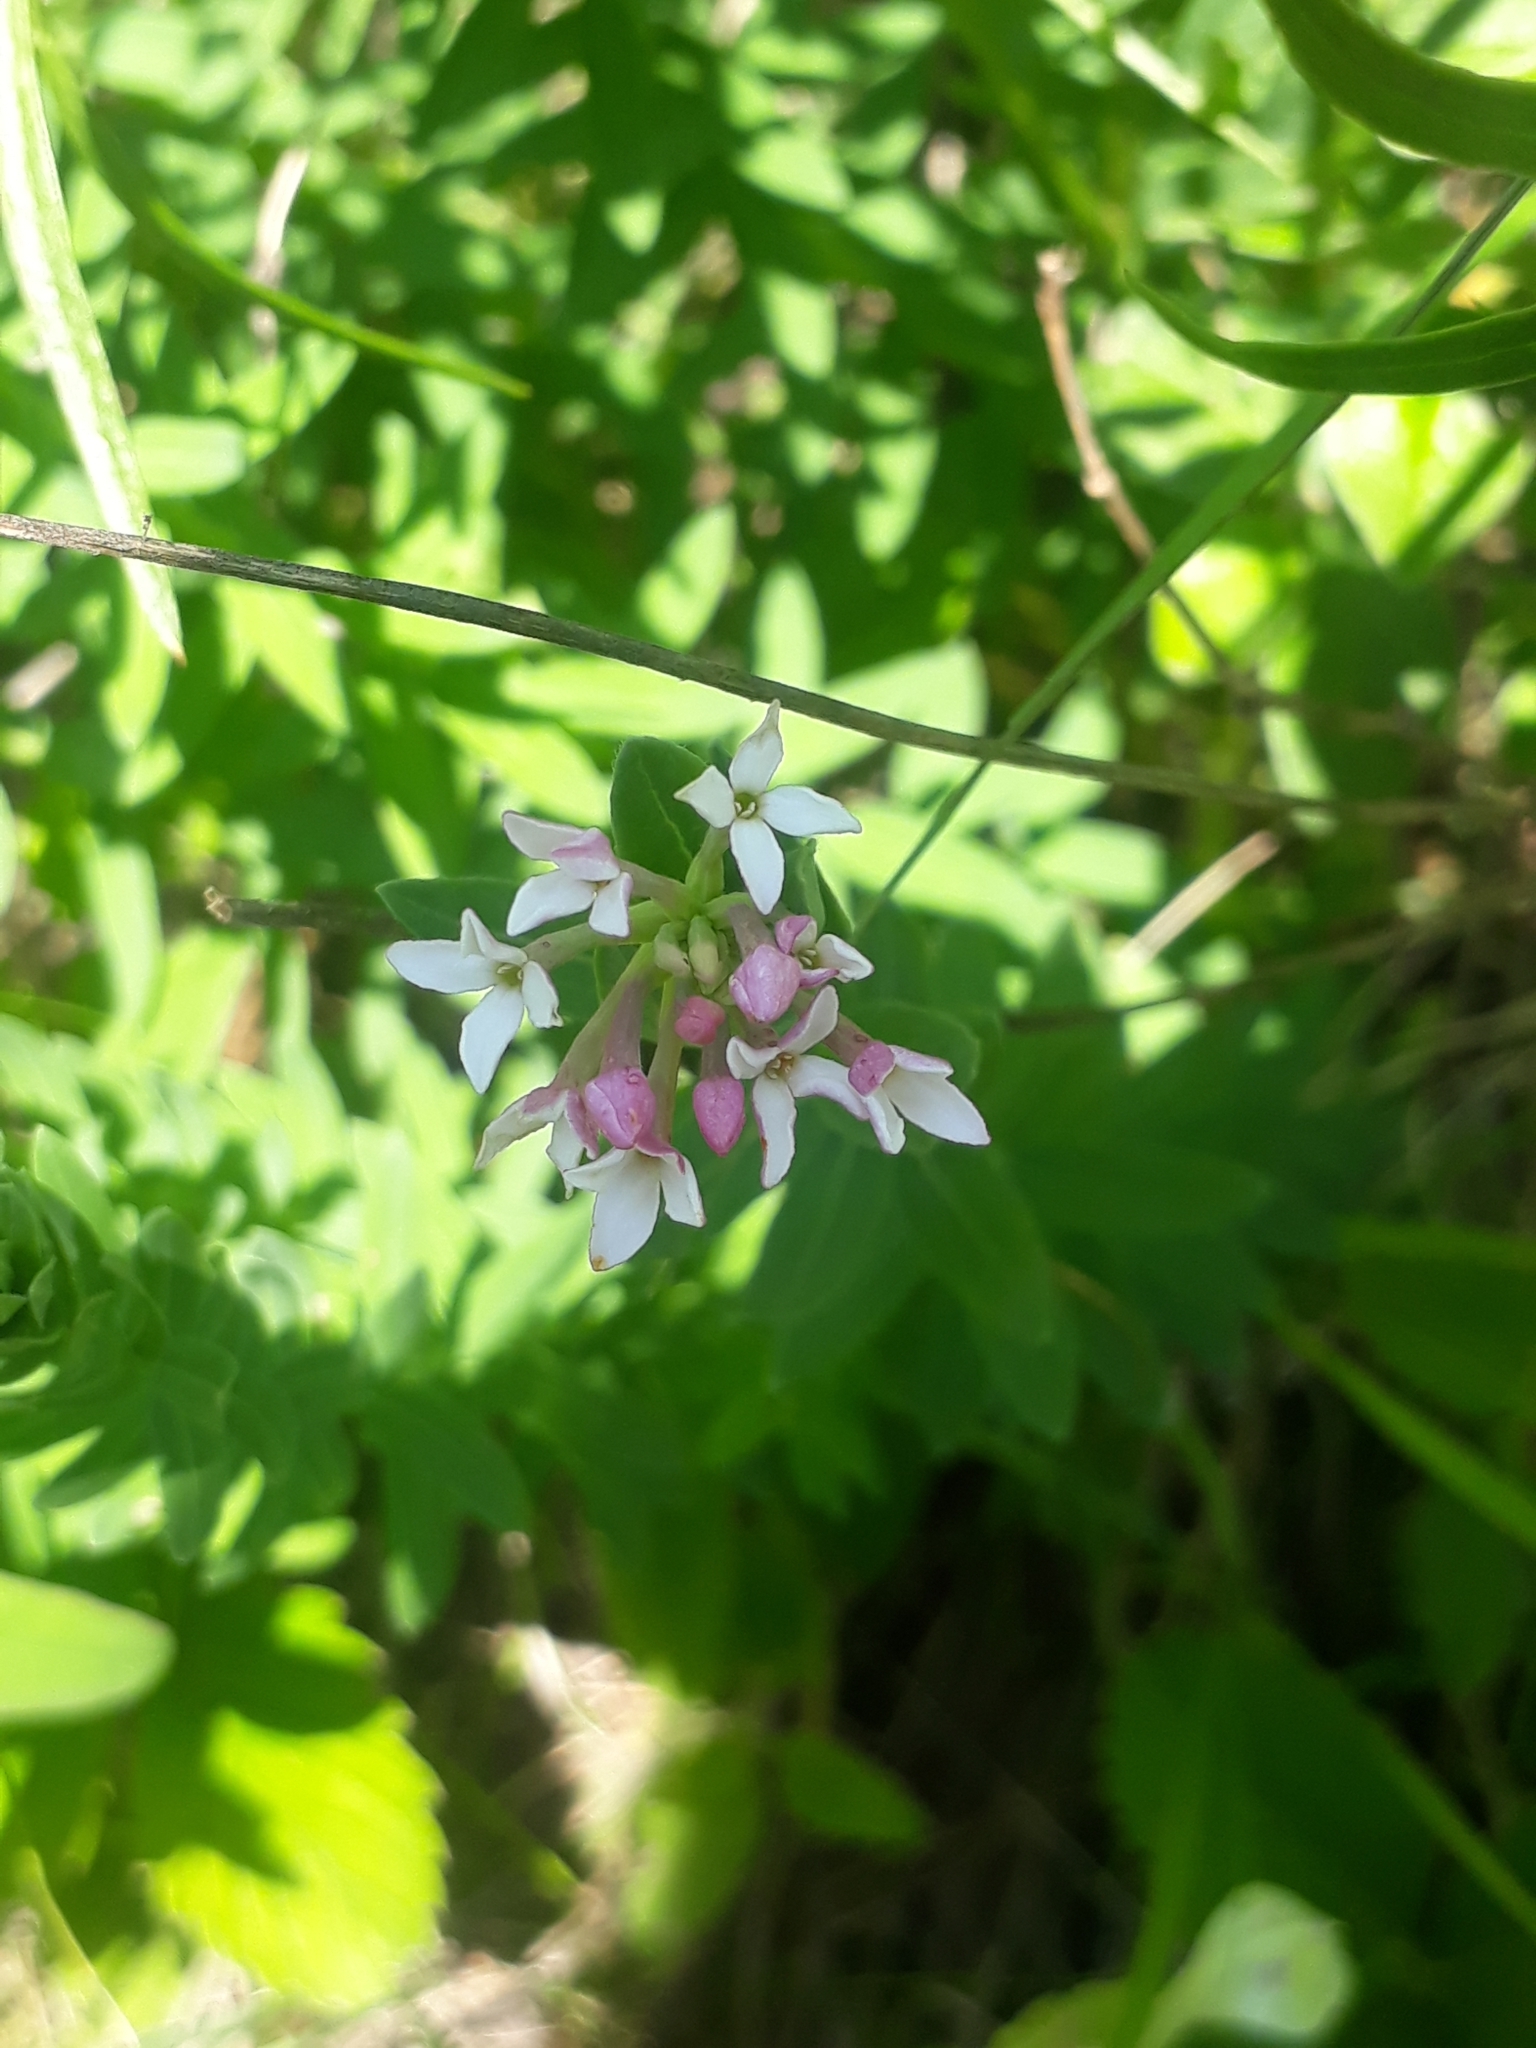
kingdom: Plantae
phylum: Tracheophyta
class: Magnoliopsida
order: Malvales
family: Thymelaeaceae
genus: Diarthron
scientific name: Diarthron altaicum
